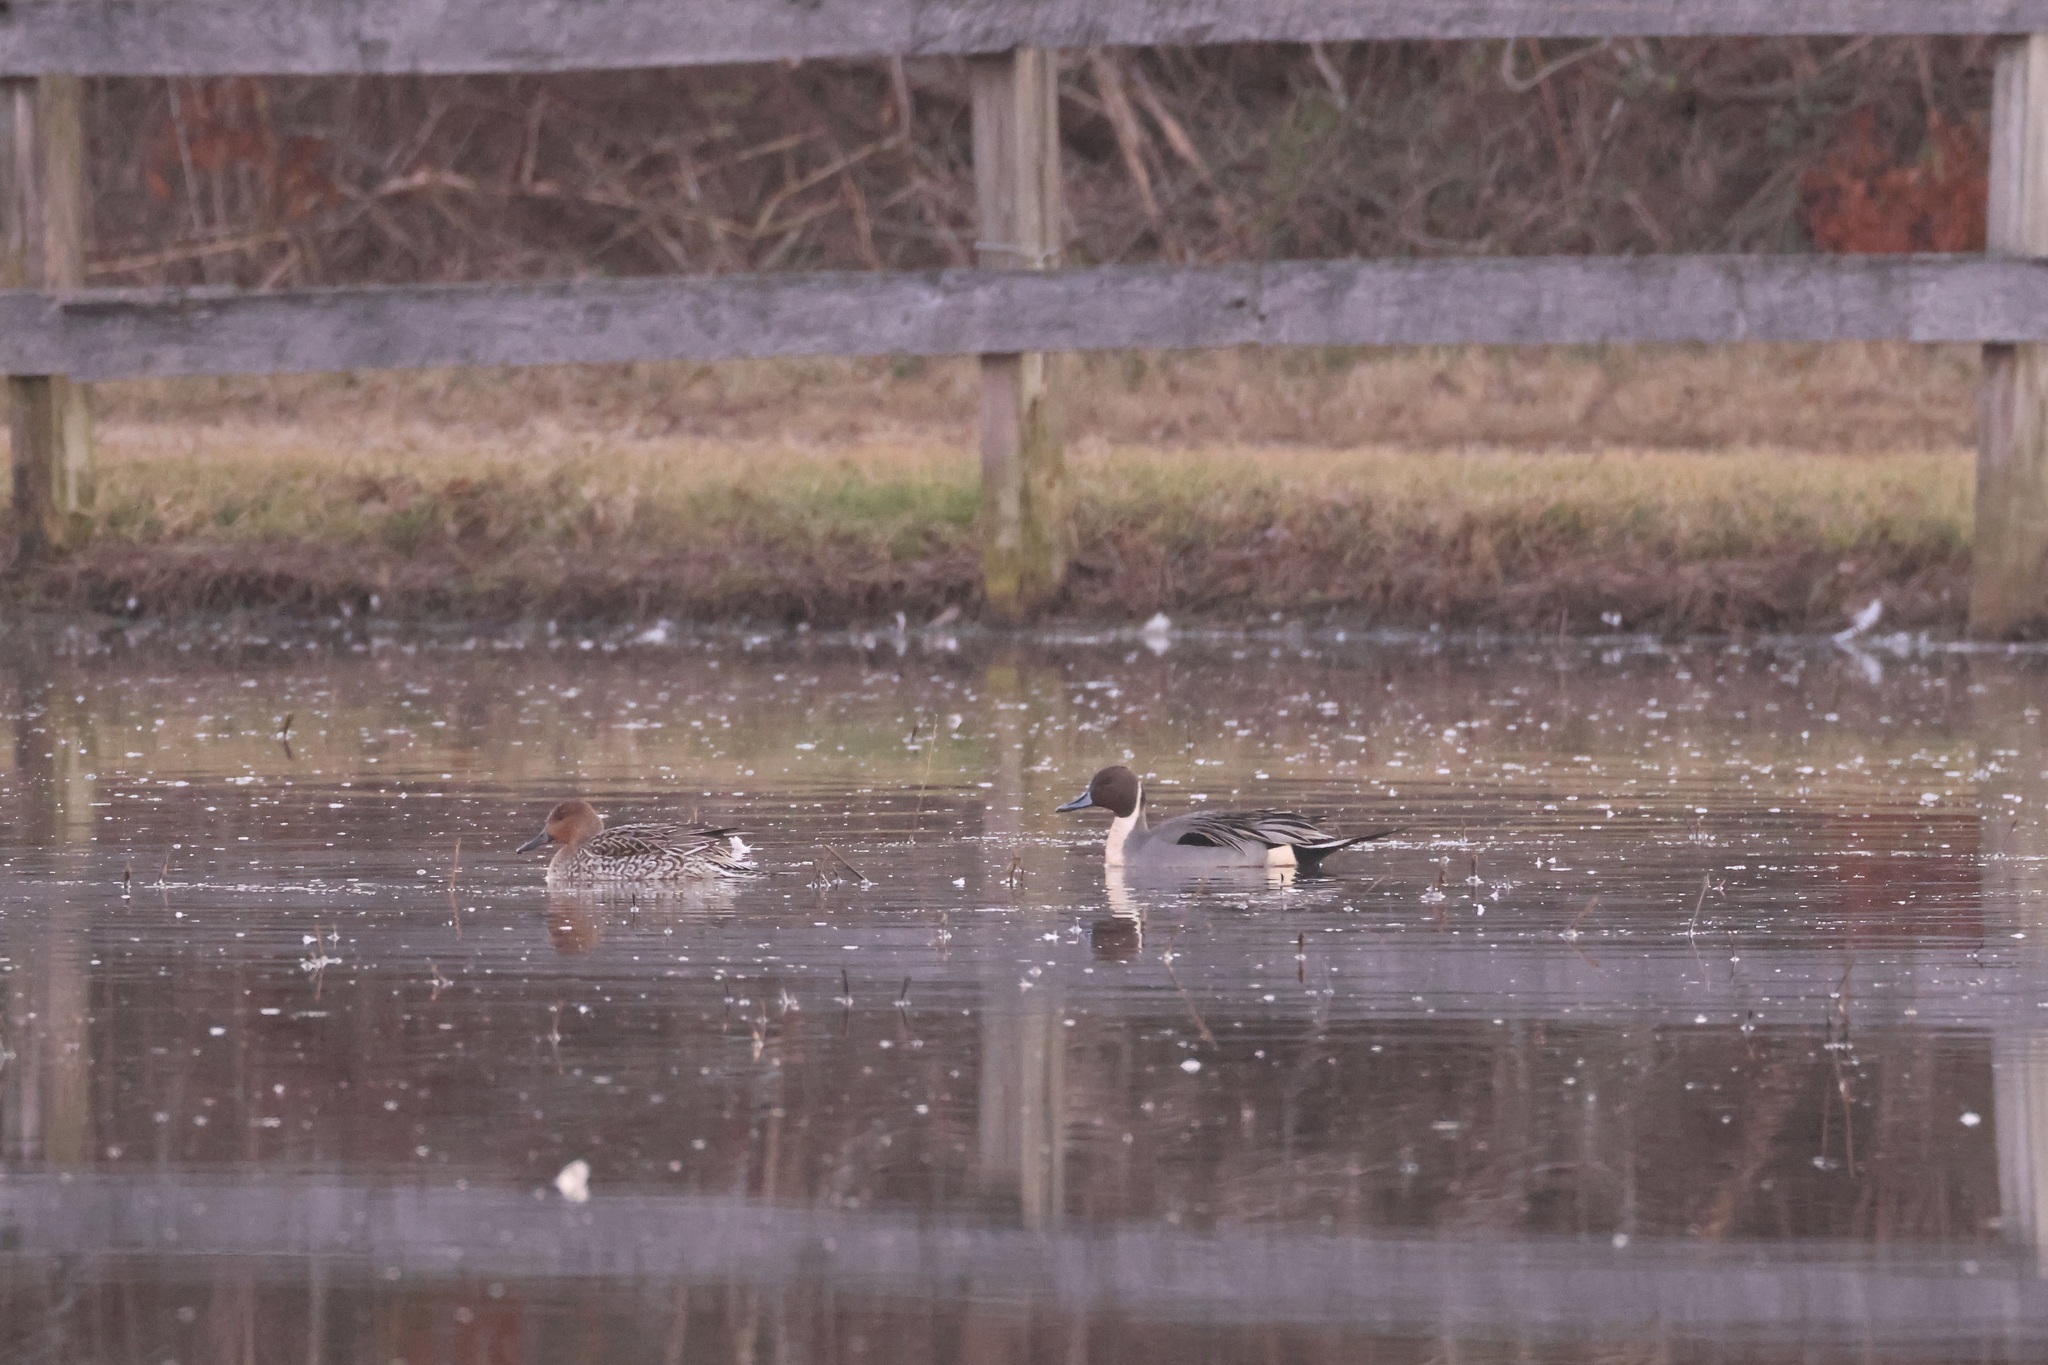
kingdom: Animalia
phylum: Chordata
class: Aves
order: Anseriformes
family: Anatidae
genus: Anas
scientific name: Anas acuta
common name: Northern pintail
